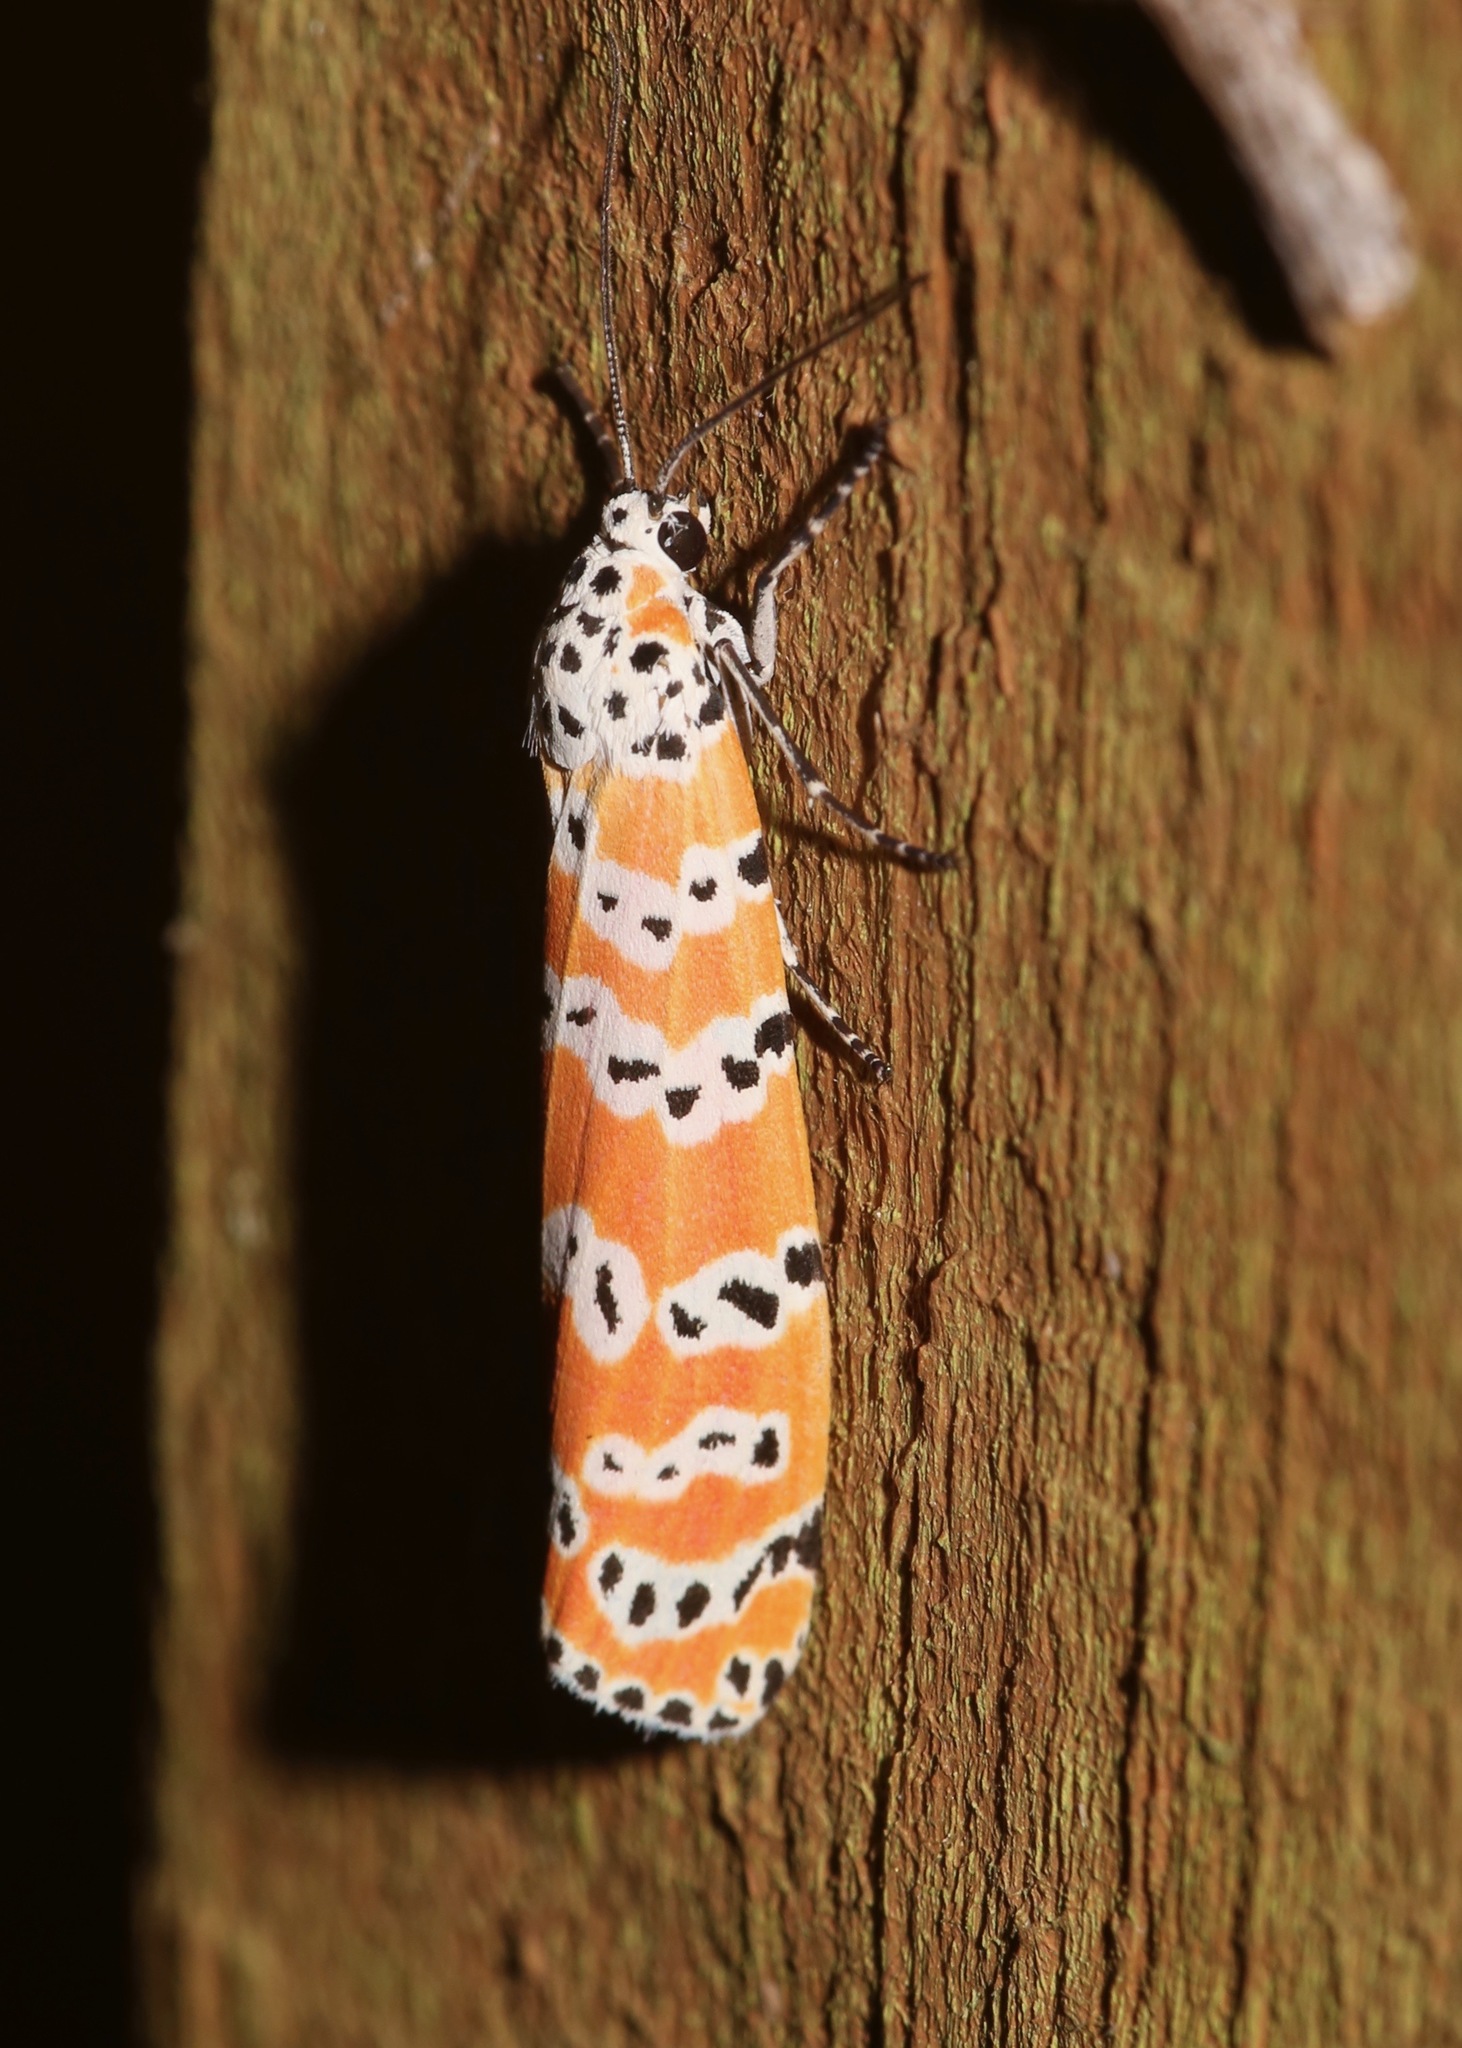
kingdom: Animalia
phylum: Arthropoda
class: Insecta
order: Lepidoptera
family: Erebidae
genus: Utetheisa
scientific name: Utetheisa ornatrix
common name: Beautiful utetheisa
